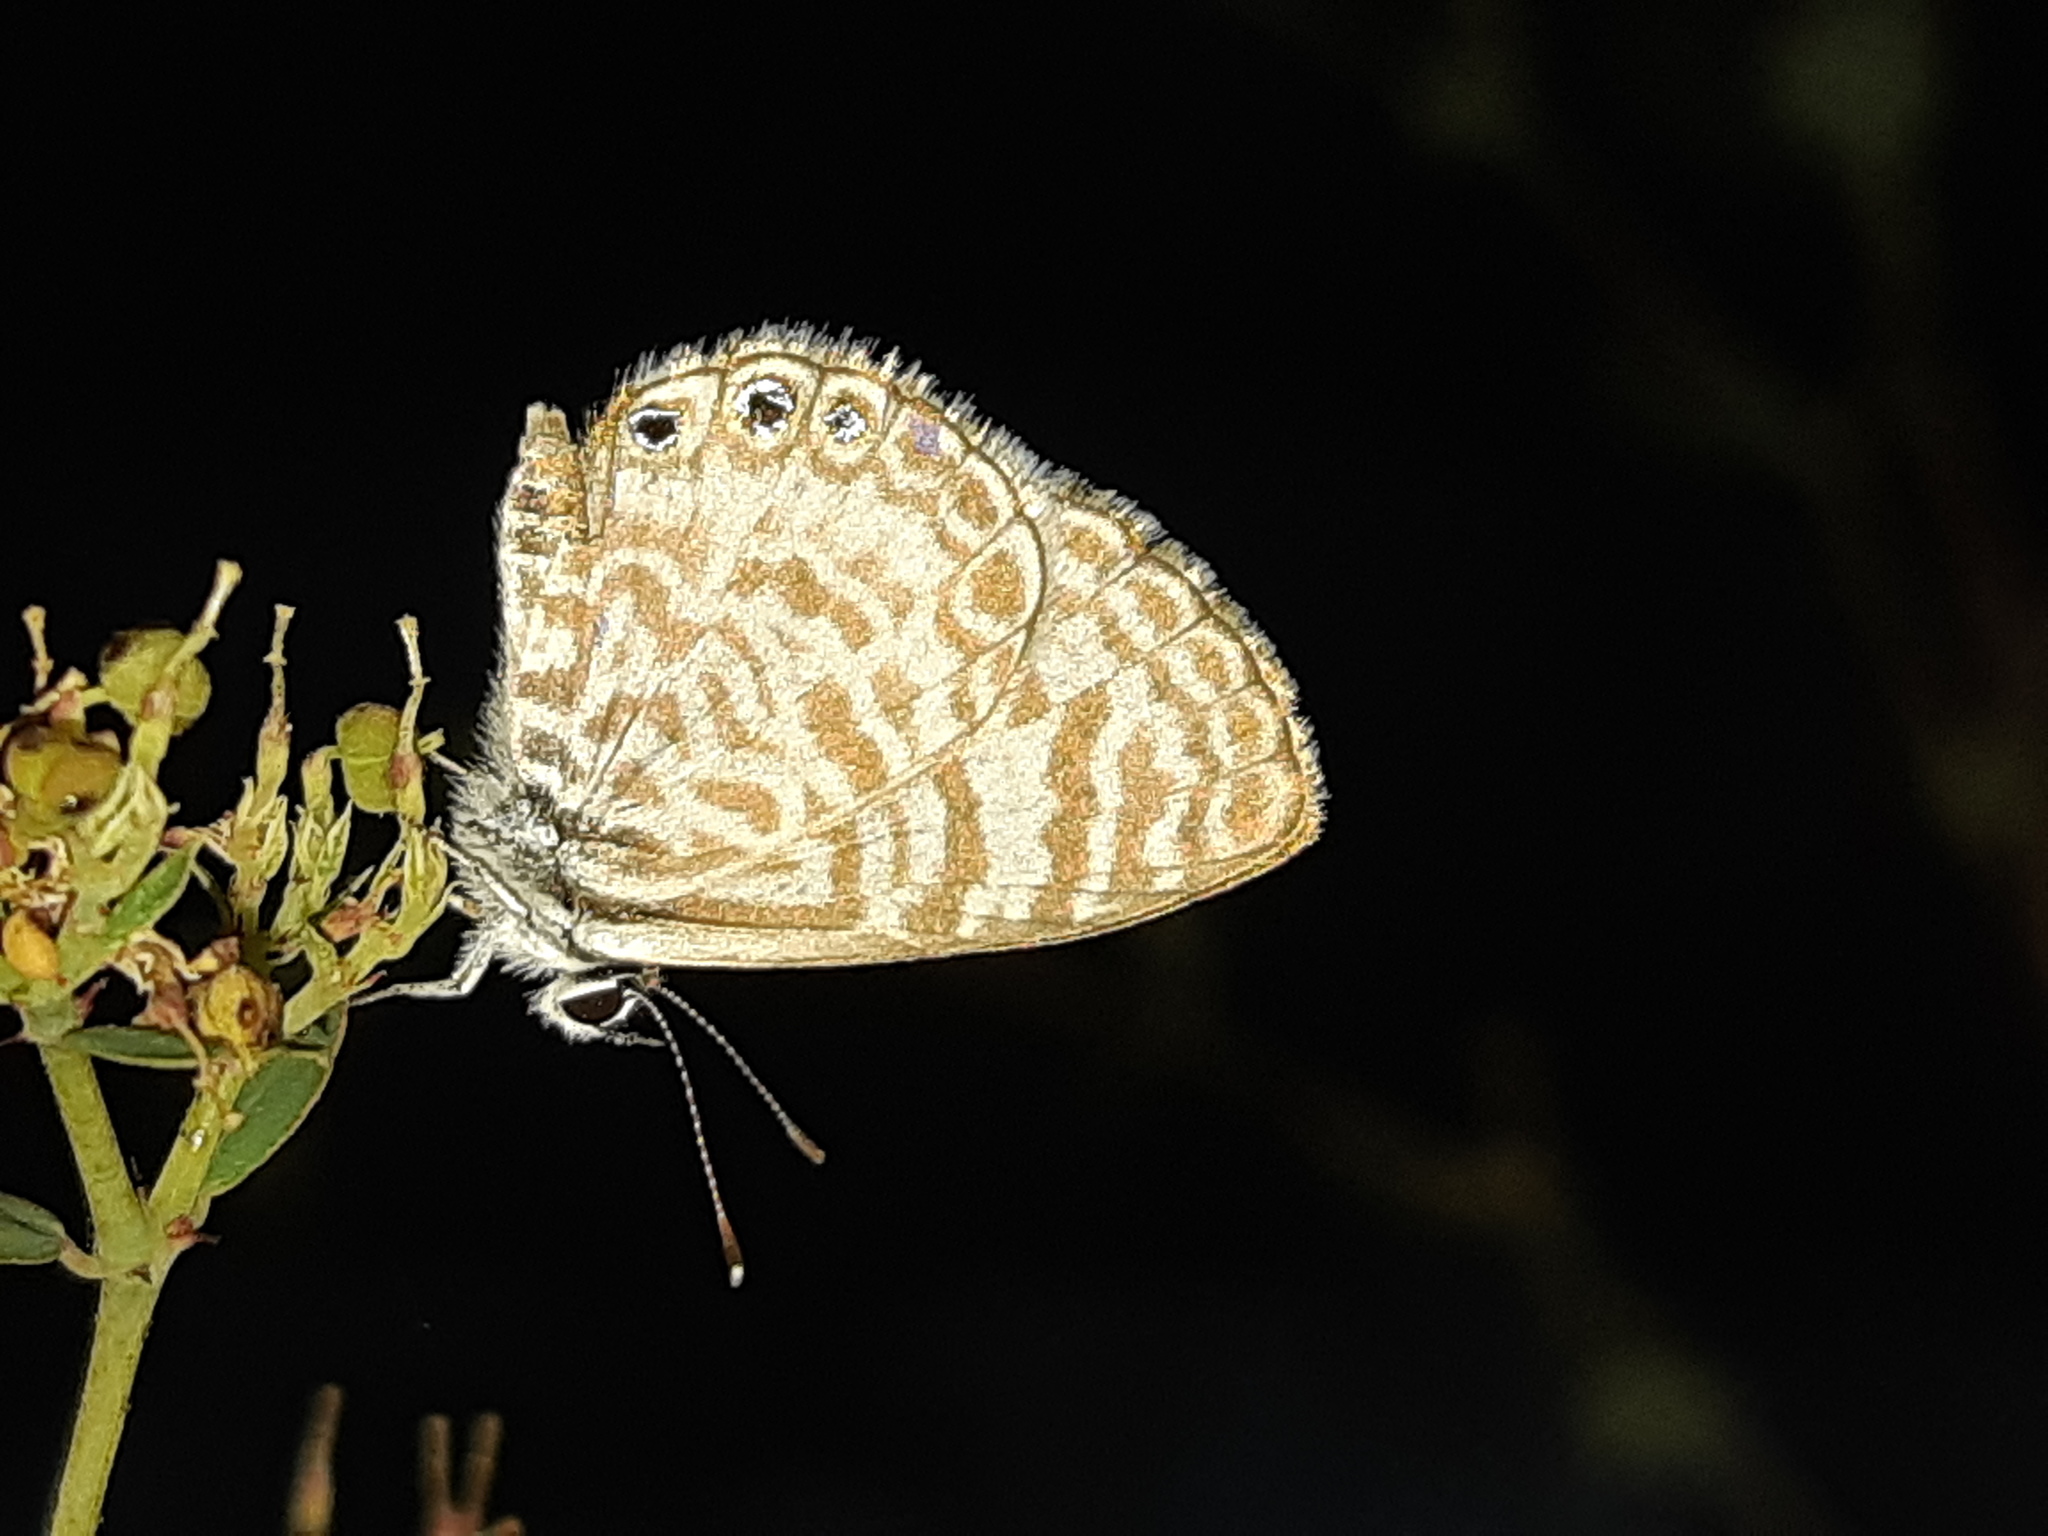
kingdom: Animalia
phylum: Arthropoda
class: Insecta
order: Lepidoptera
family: Lycaenidae
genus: Leptotes
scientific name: Leptotes
